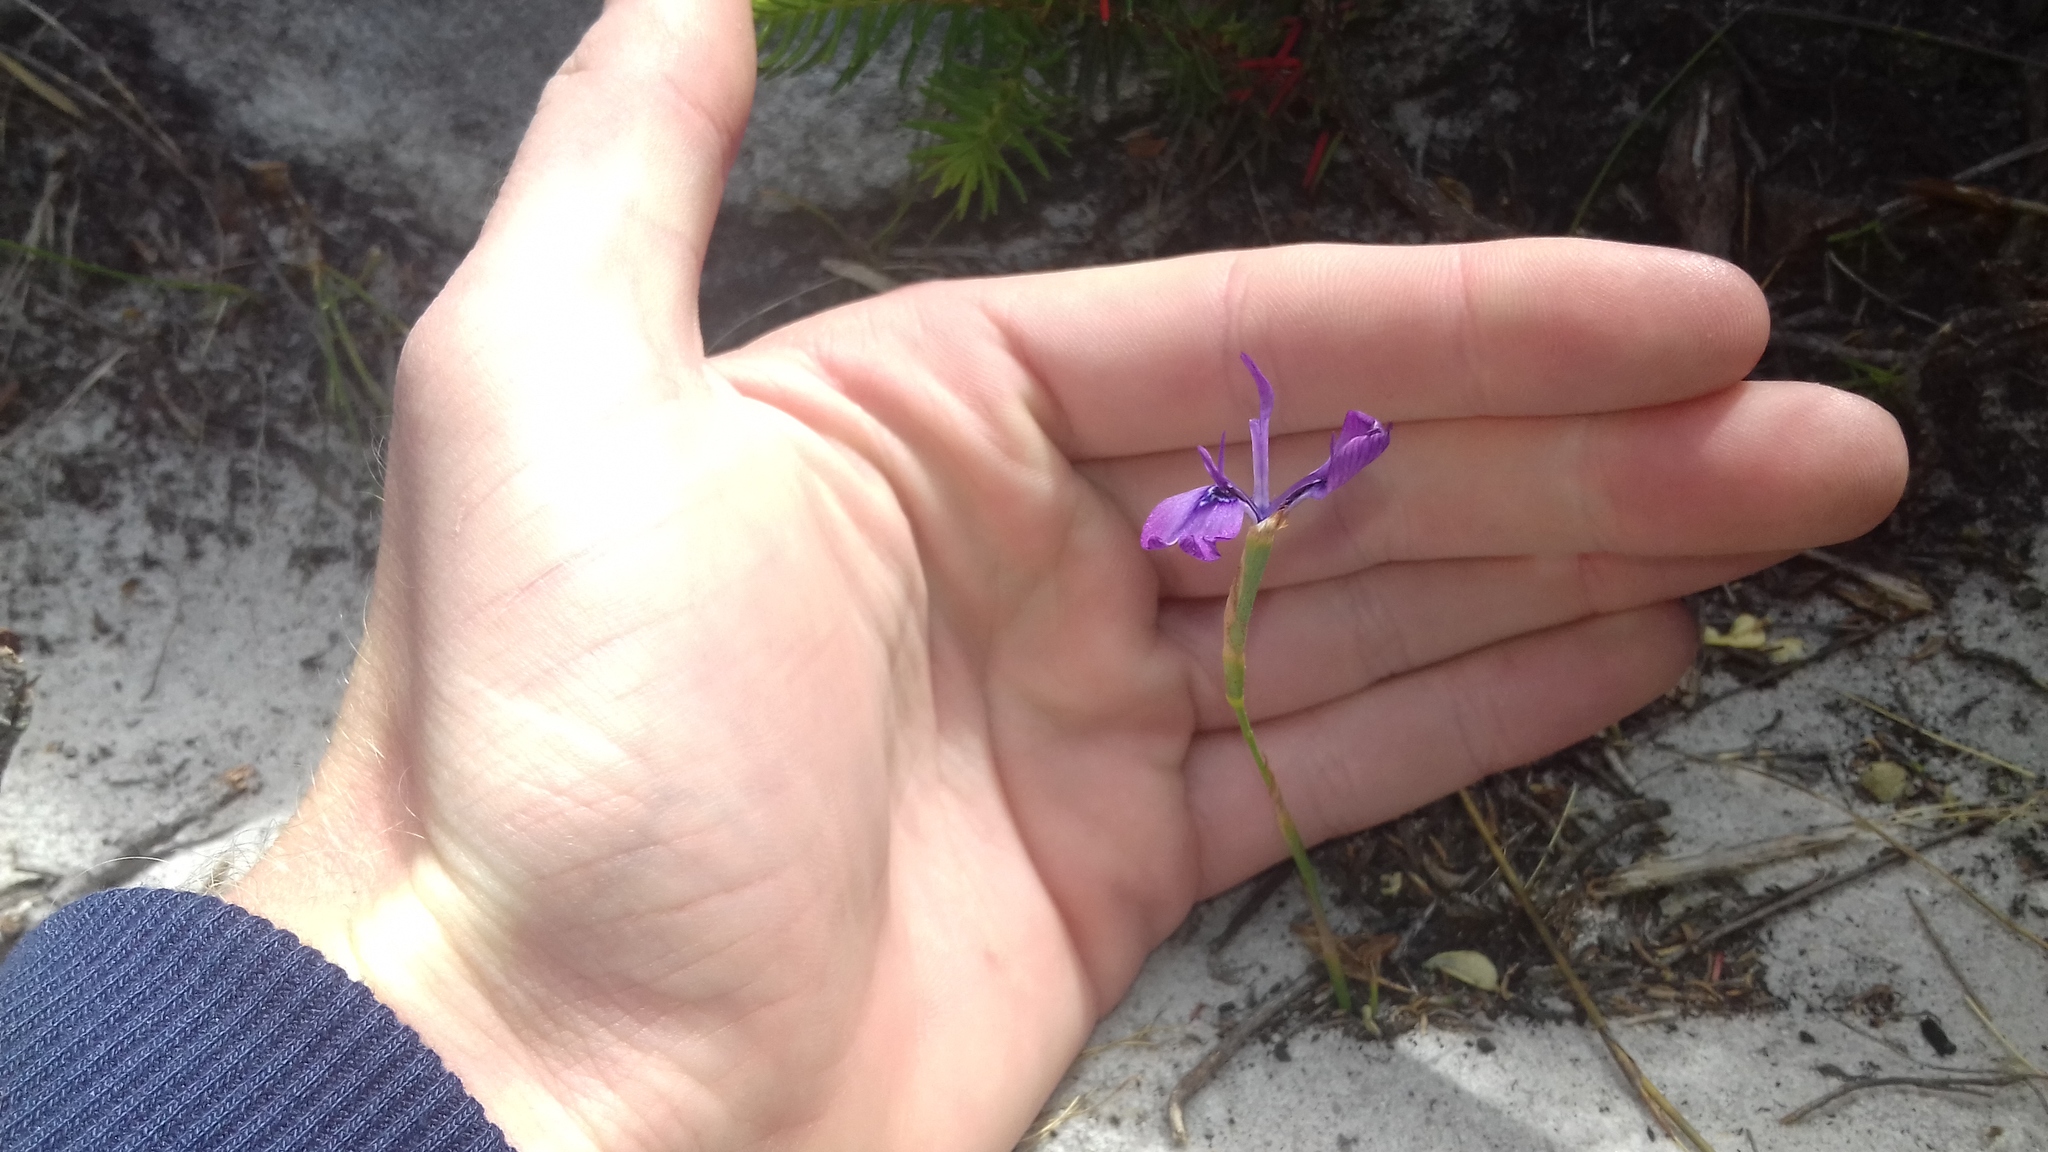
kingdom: Plantae
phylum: Tracheophyta
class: Liliopsida
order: Asparagales
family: Iridaceae
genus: Moraea
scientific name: Moraea tripetala
